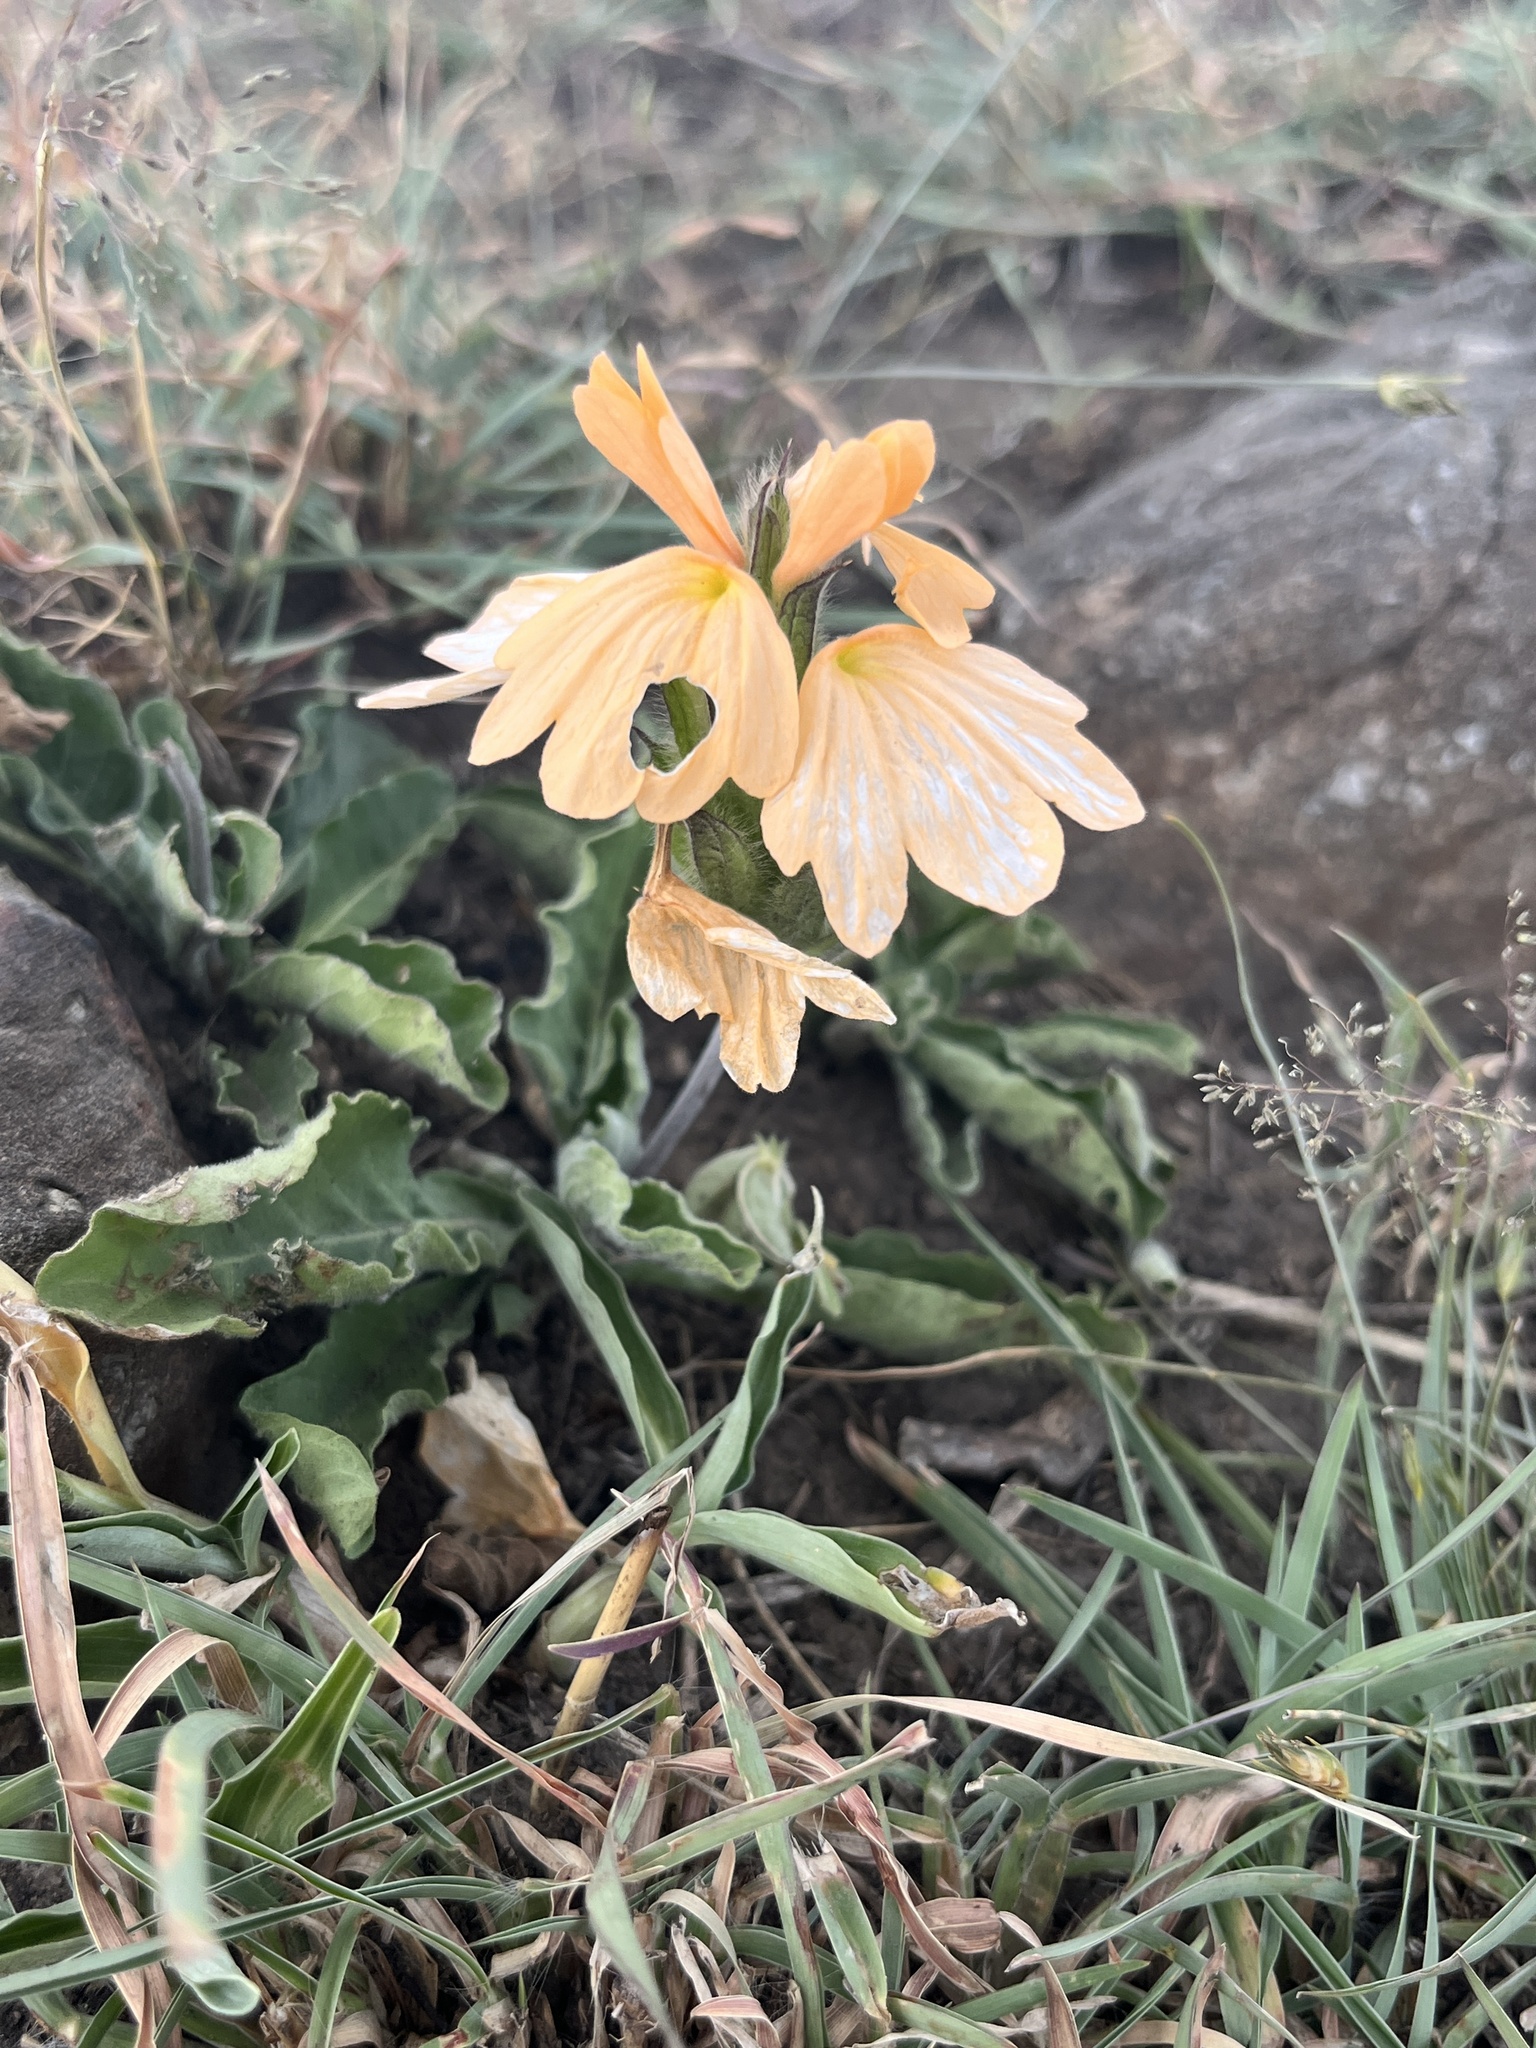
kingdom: Plantae
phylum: Tracheophyta
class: Magnoliopsida
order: Lamiales
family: Acanthaceae
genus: Crossandra
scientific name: Crossandra subacaulis
